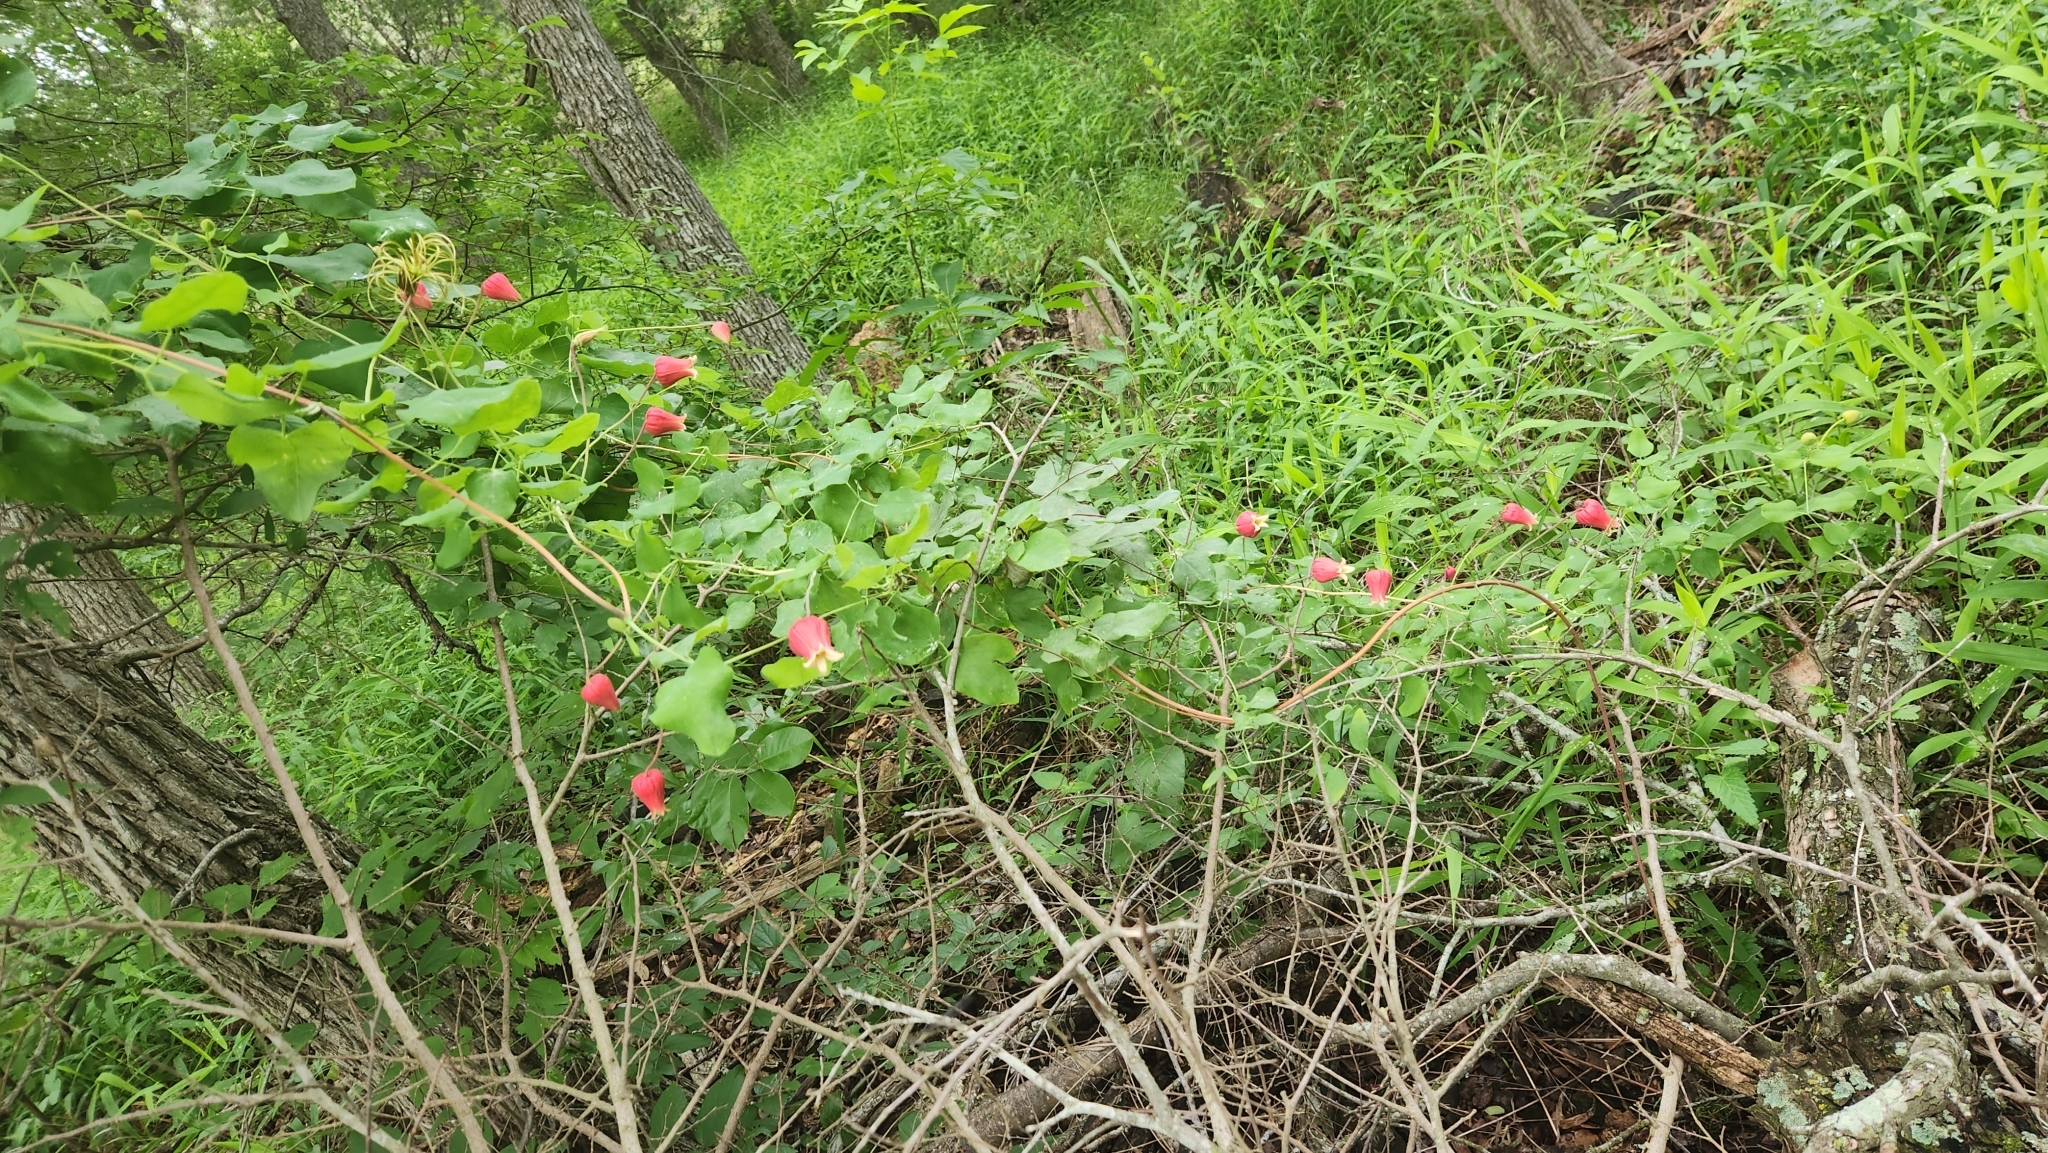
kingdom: Plantae
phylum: Tracheophyta
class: Magnoliopsida
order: Ranunculales
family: Ranunculaceae
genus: Clematis
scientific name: Clematis texensis
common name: Crimson clematis
